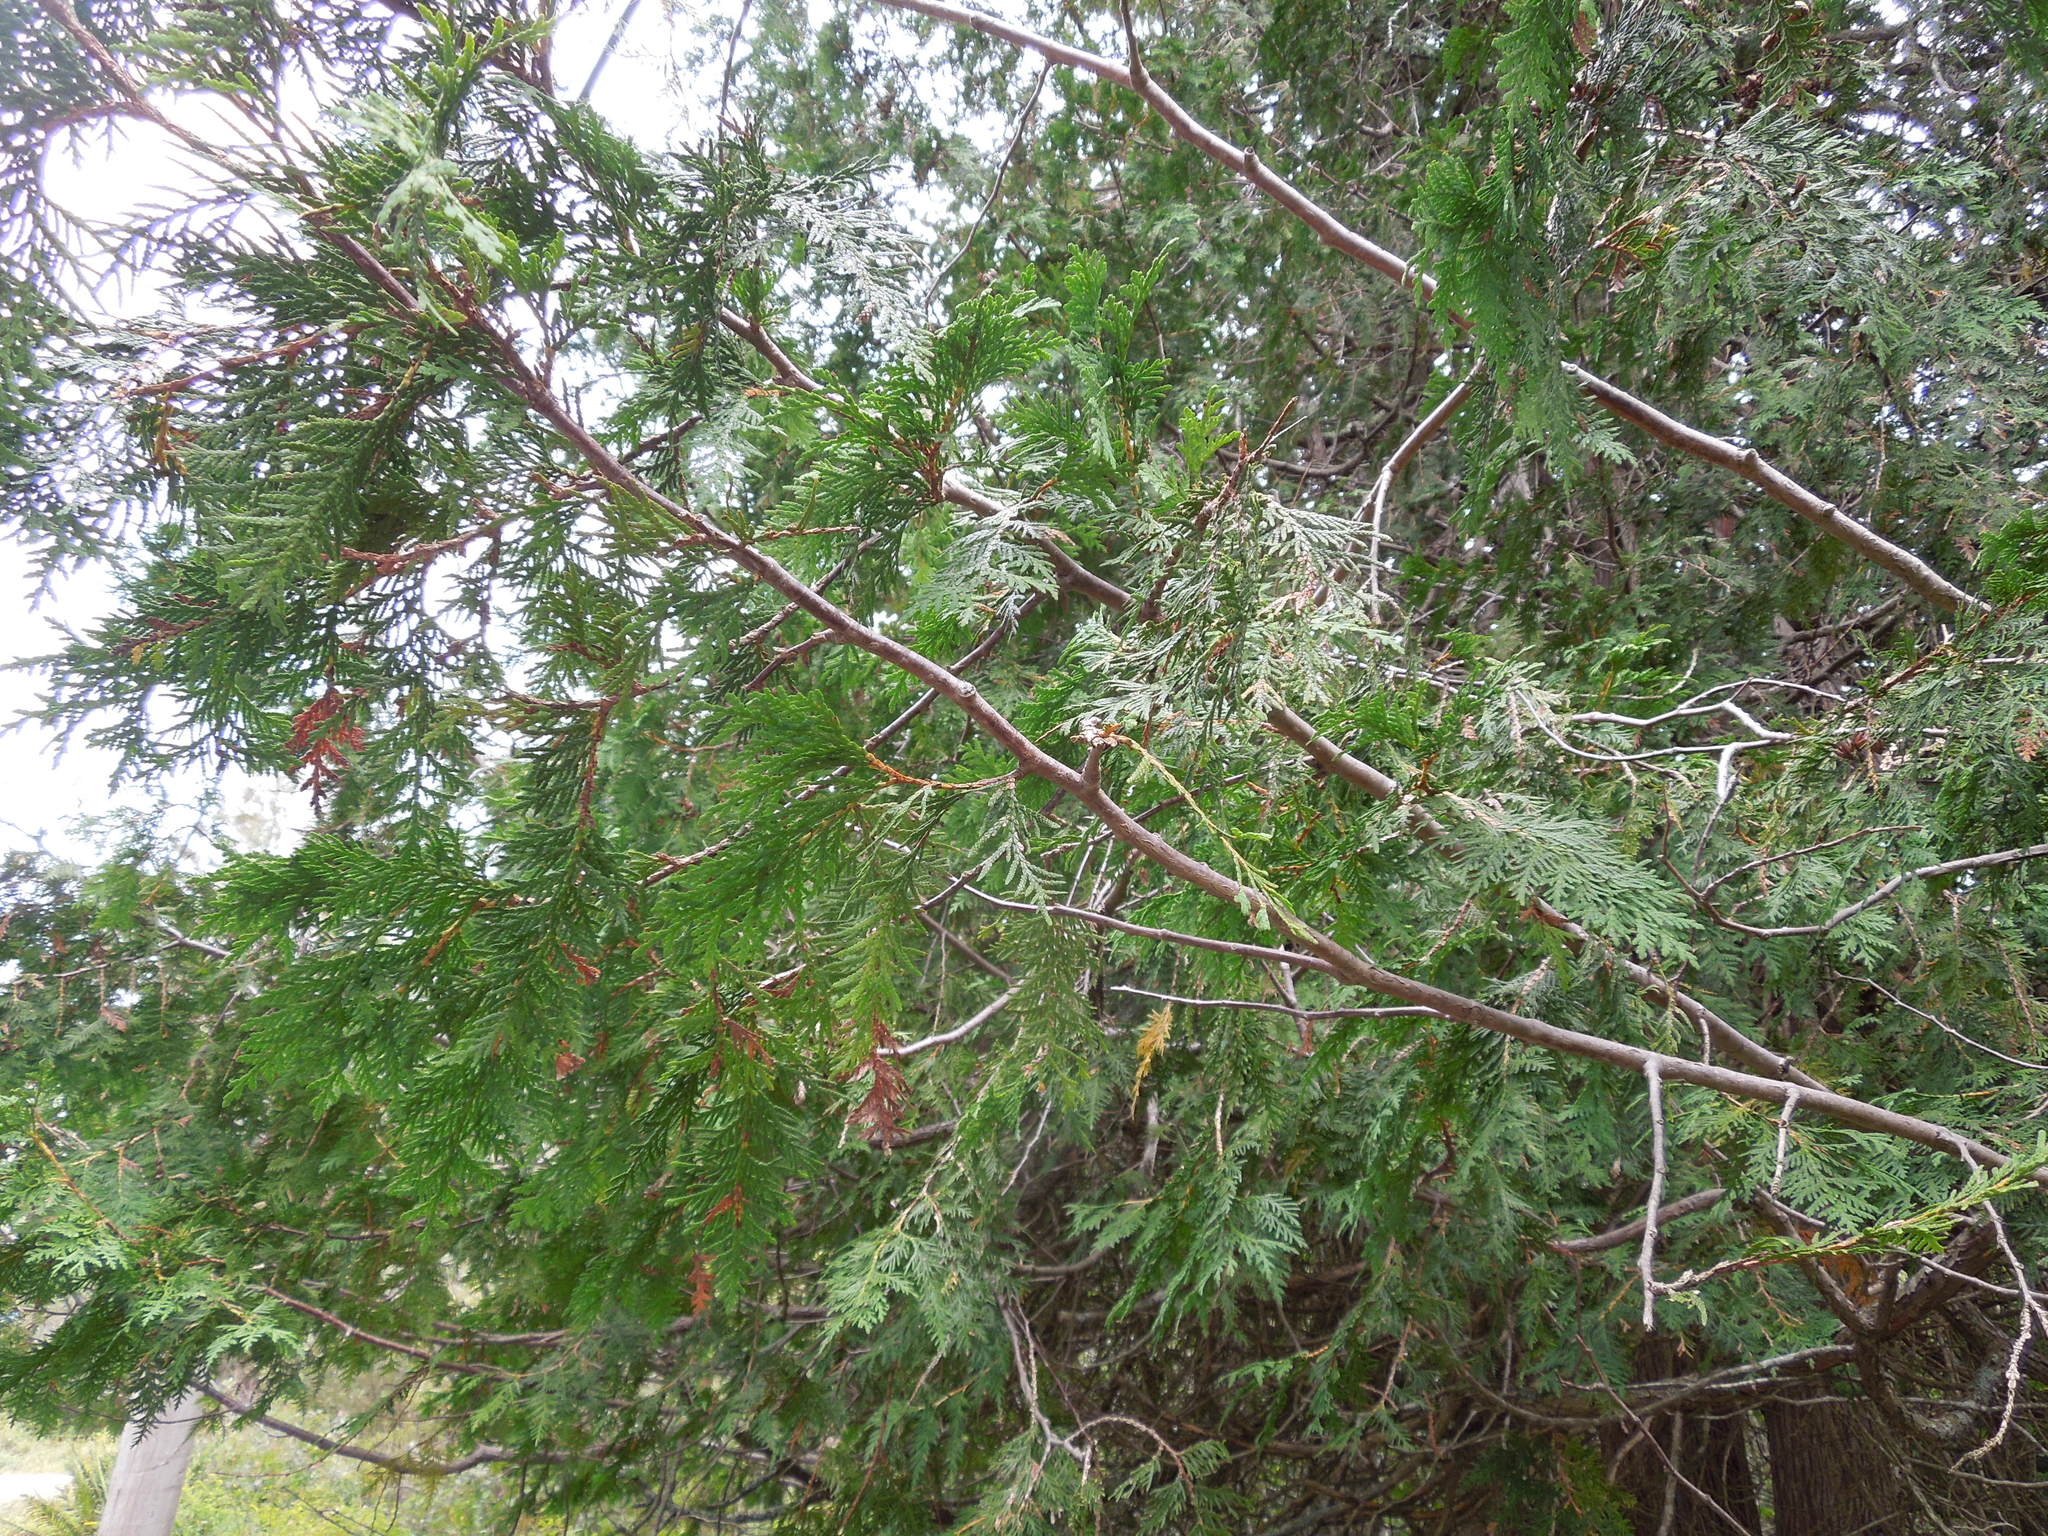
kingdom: Plantae
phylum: Tracheophyta
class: Pinopsida
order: Pinales
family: Cupressaceae
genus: Thuja
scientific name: Thuja occidentalis
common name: Northern white-cedar
